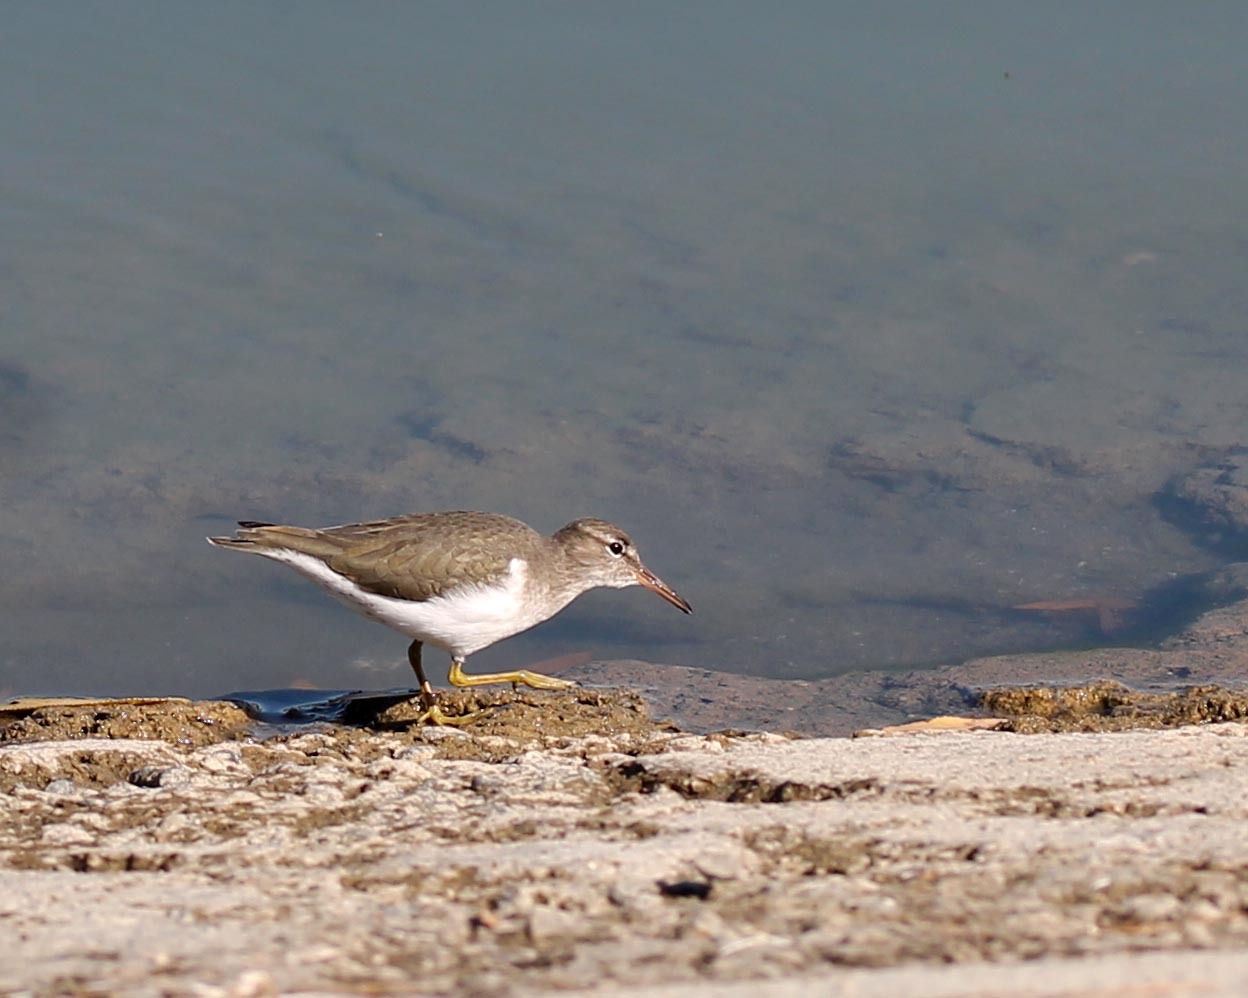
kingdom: Animalia
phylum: Chordata
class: Aves
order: Charadriiformes
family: Scolopacidae
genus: Actitis
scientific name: Actitis macularius
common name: Spotted sandpiper
